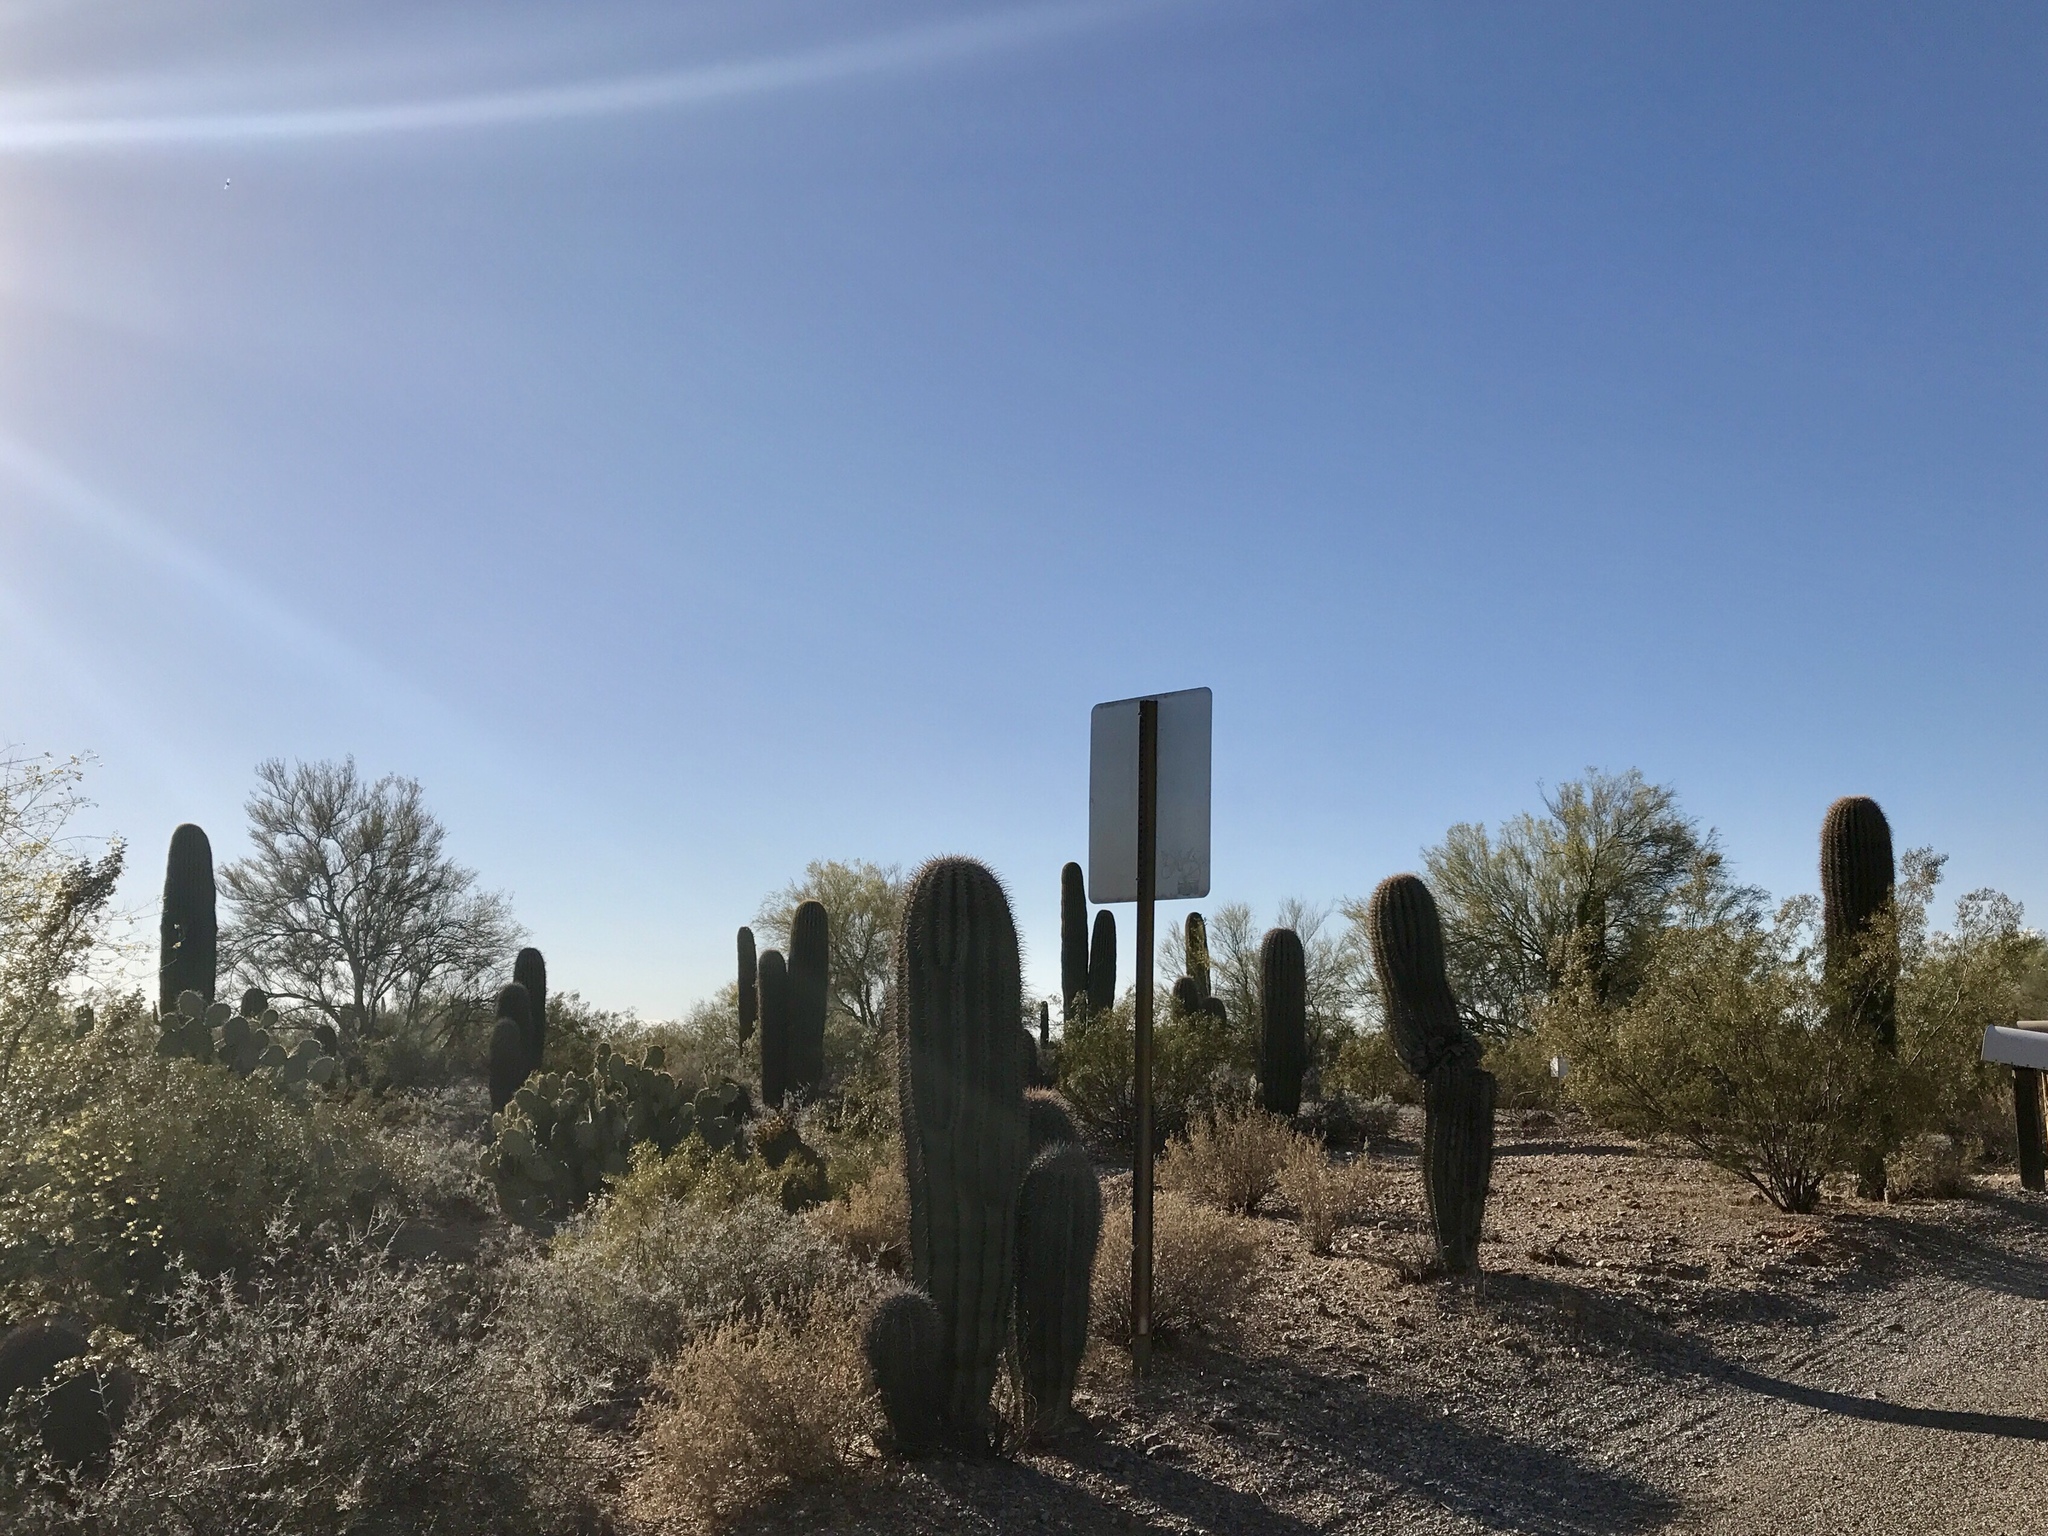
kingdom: Plantae
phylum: Tracheophyta
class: Magnoliopsida
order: Caryophyllales
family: Cactaceae
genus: Carnegiea
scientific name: Carnegiea gigantea
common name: Saguaro
